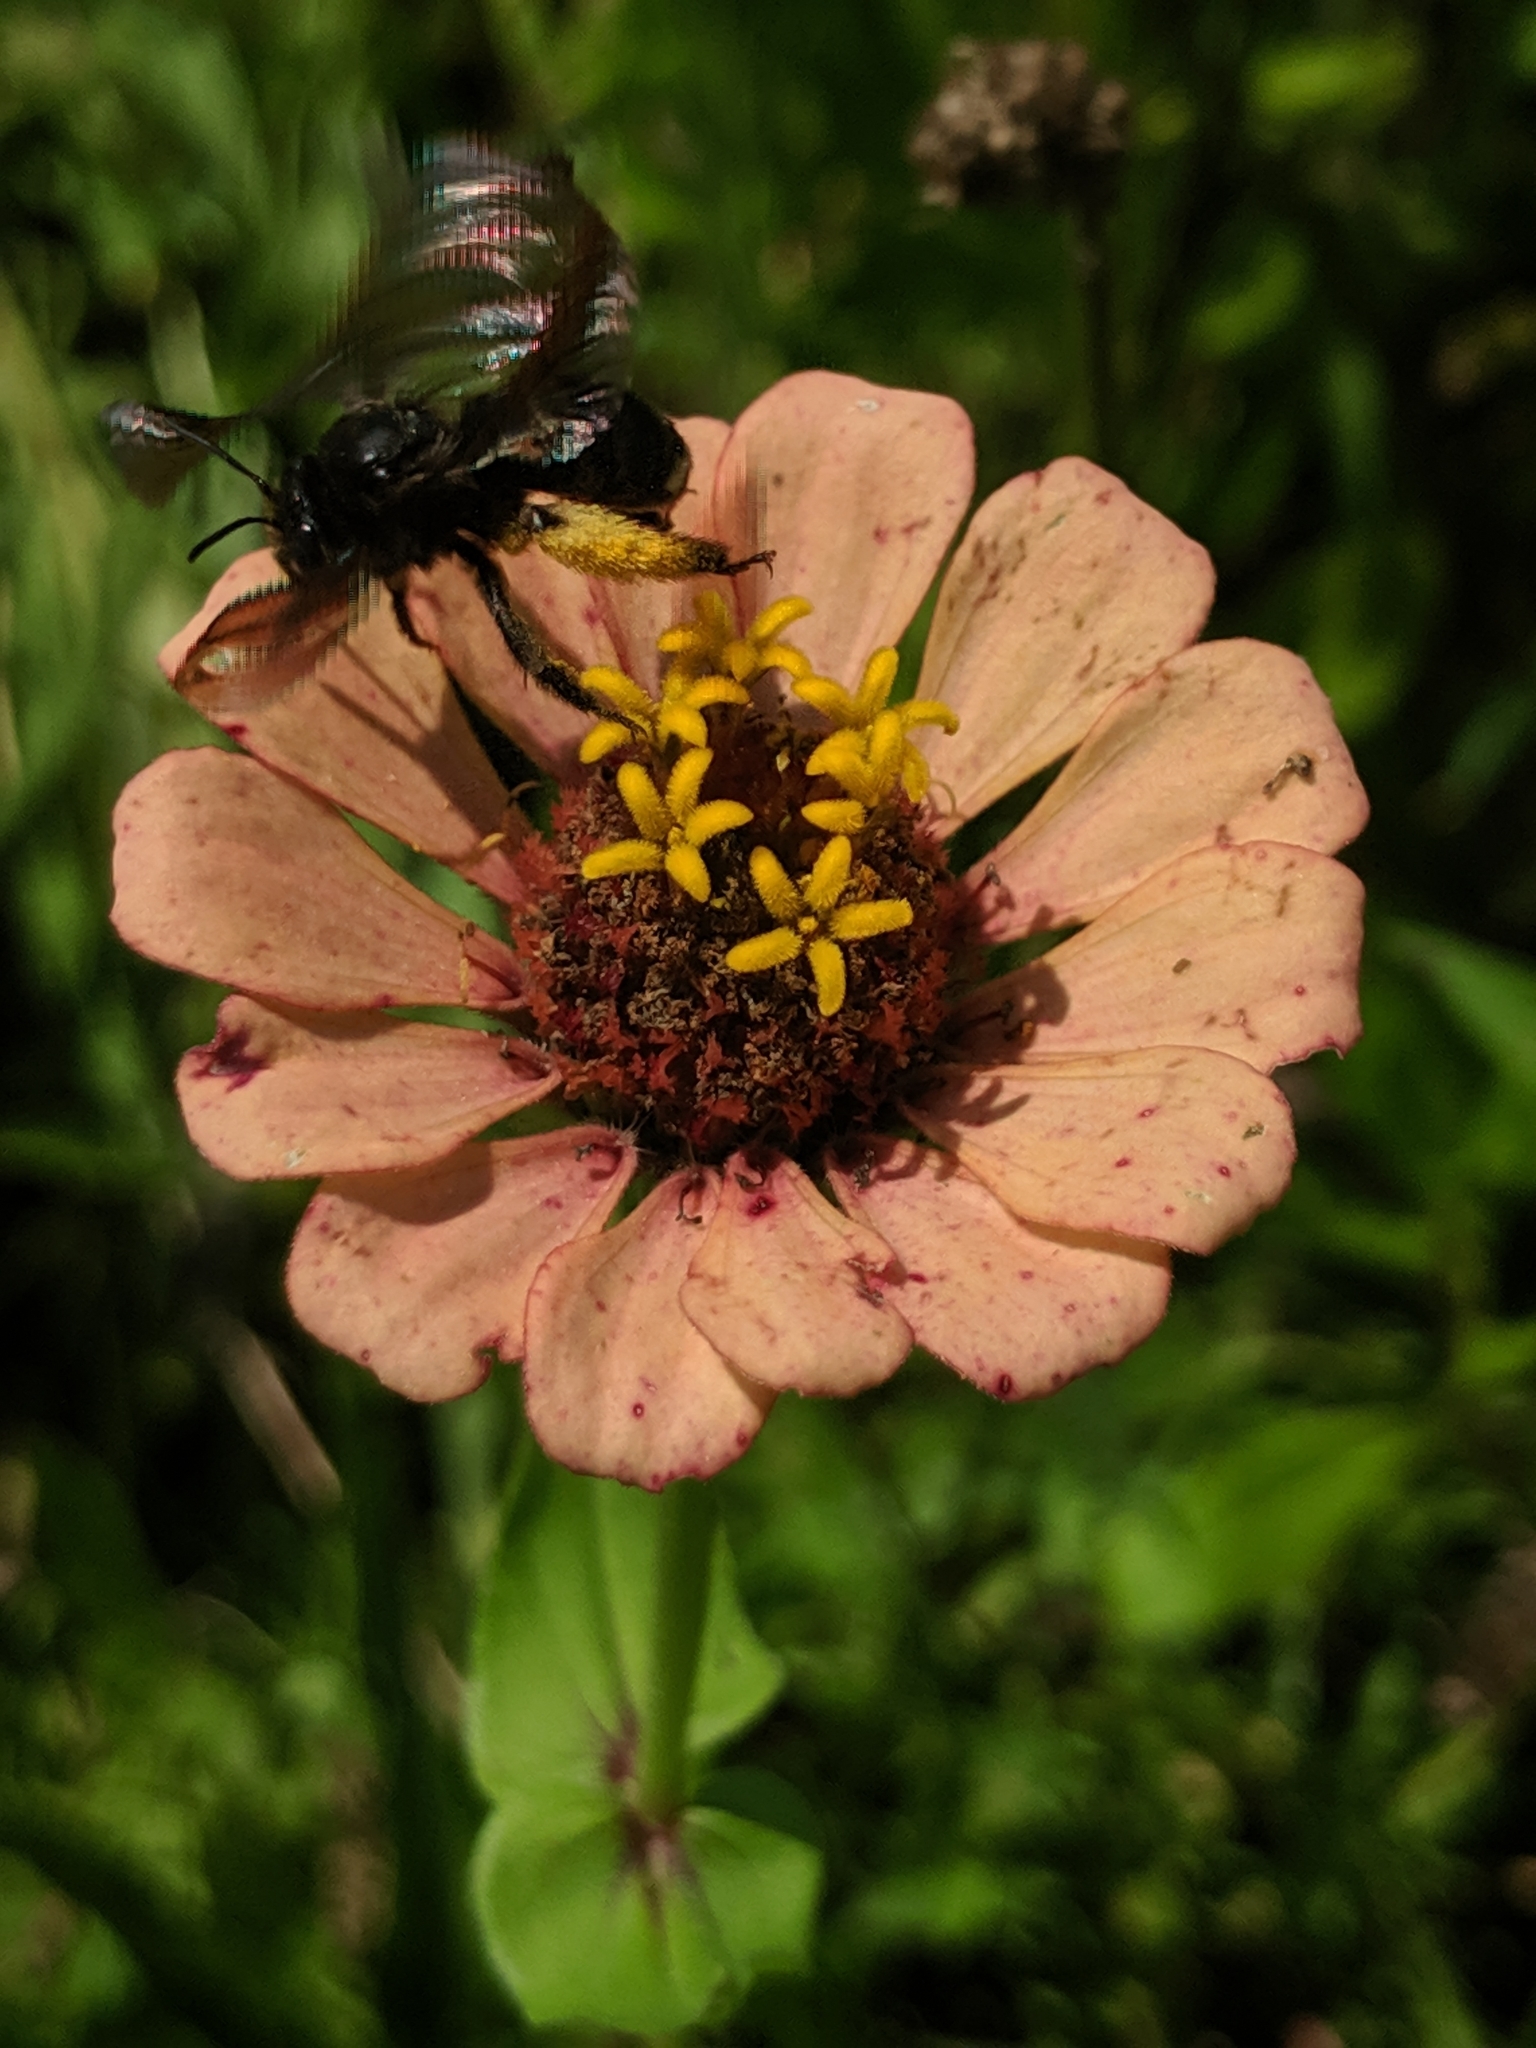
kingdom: Animalia
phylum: Arthropoda
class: Insecta
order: Hymenoptera
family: Apidae
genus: Melissodes
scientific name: Melissodes bimaculatus
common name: Two-spotted long-horned bee
